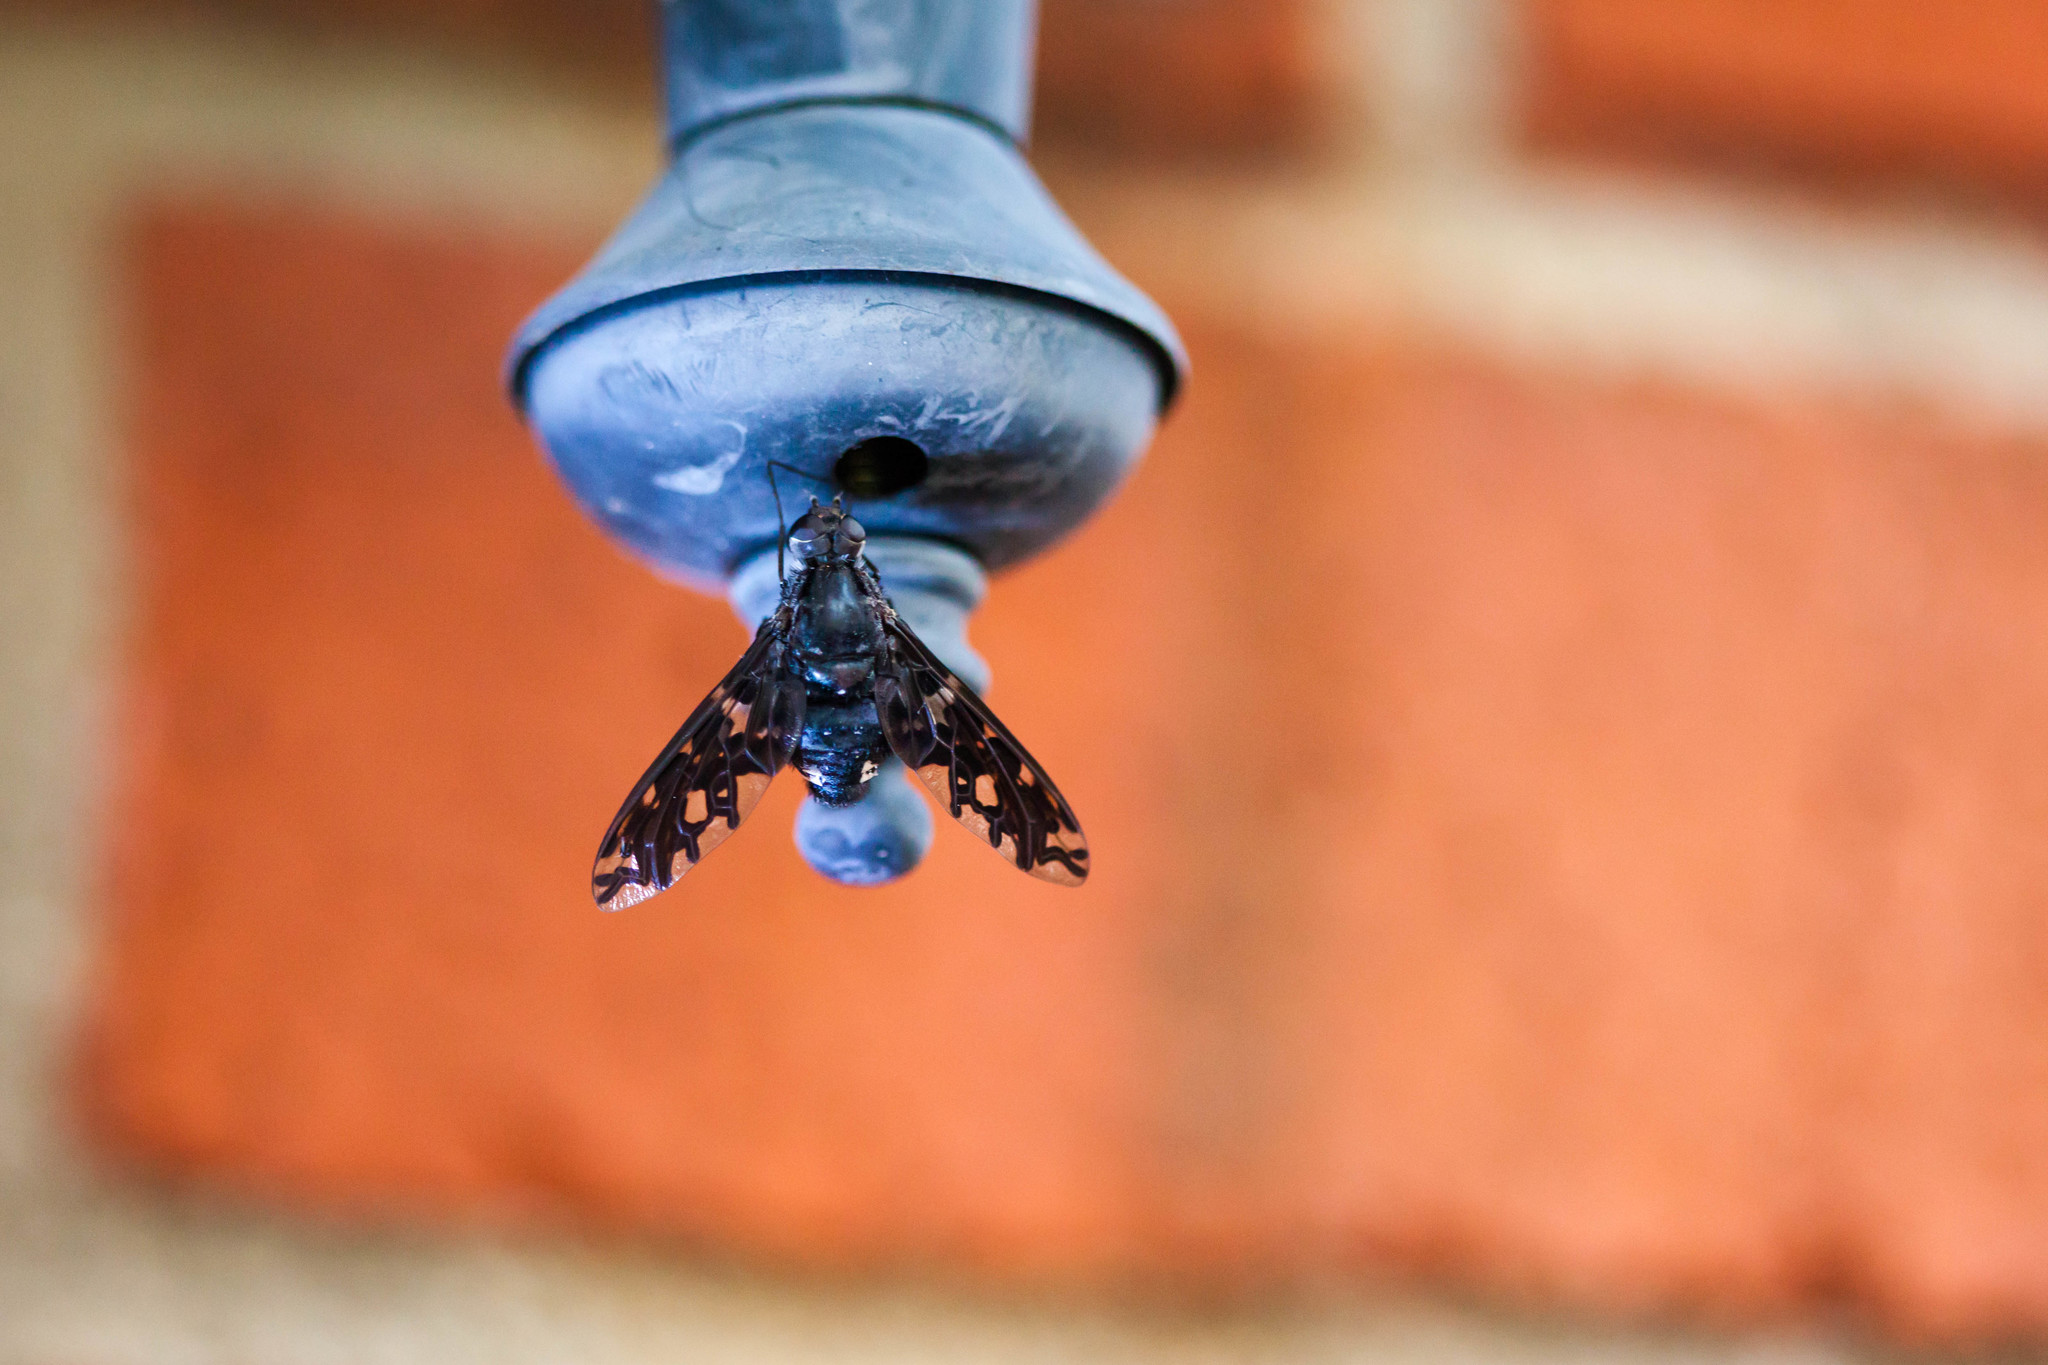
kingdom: Animalia
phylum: Arthropoda
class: Insecta
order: Diptera
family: Bombyliidae
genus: Xenox
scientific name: Xenox tigrinus
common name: Tiger bee fly
